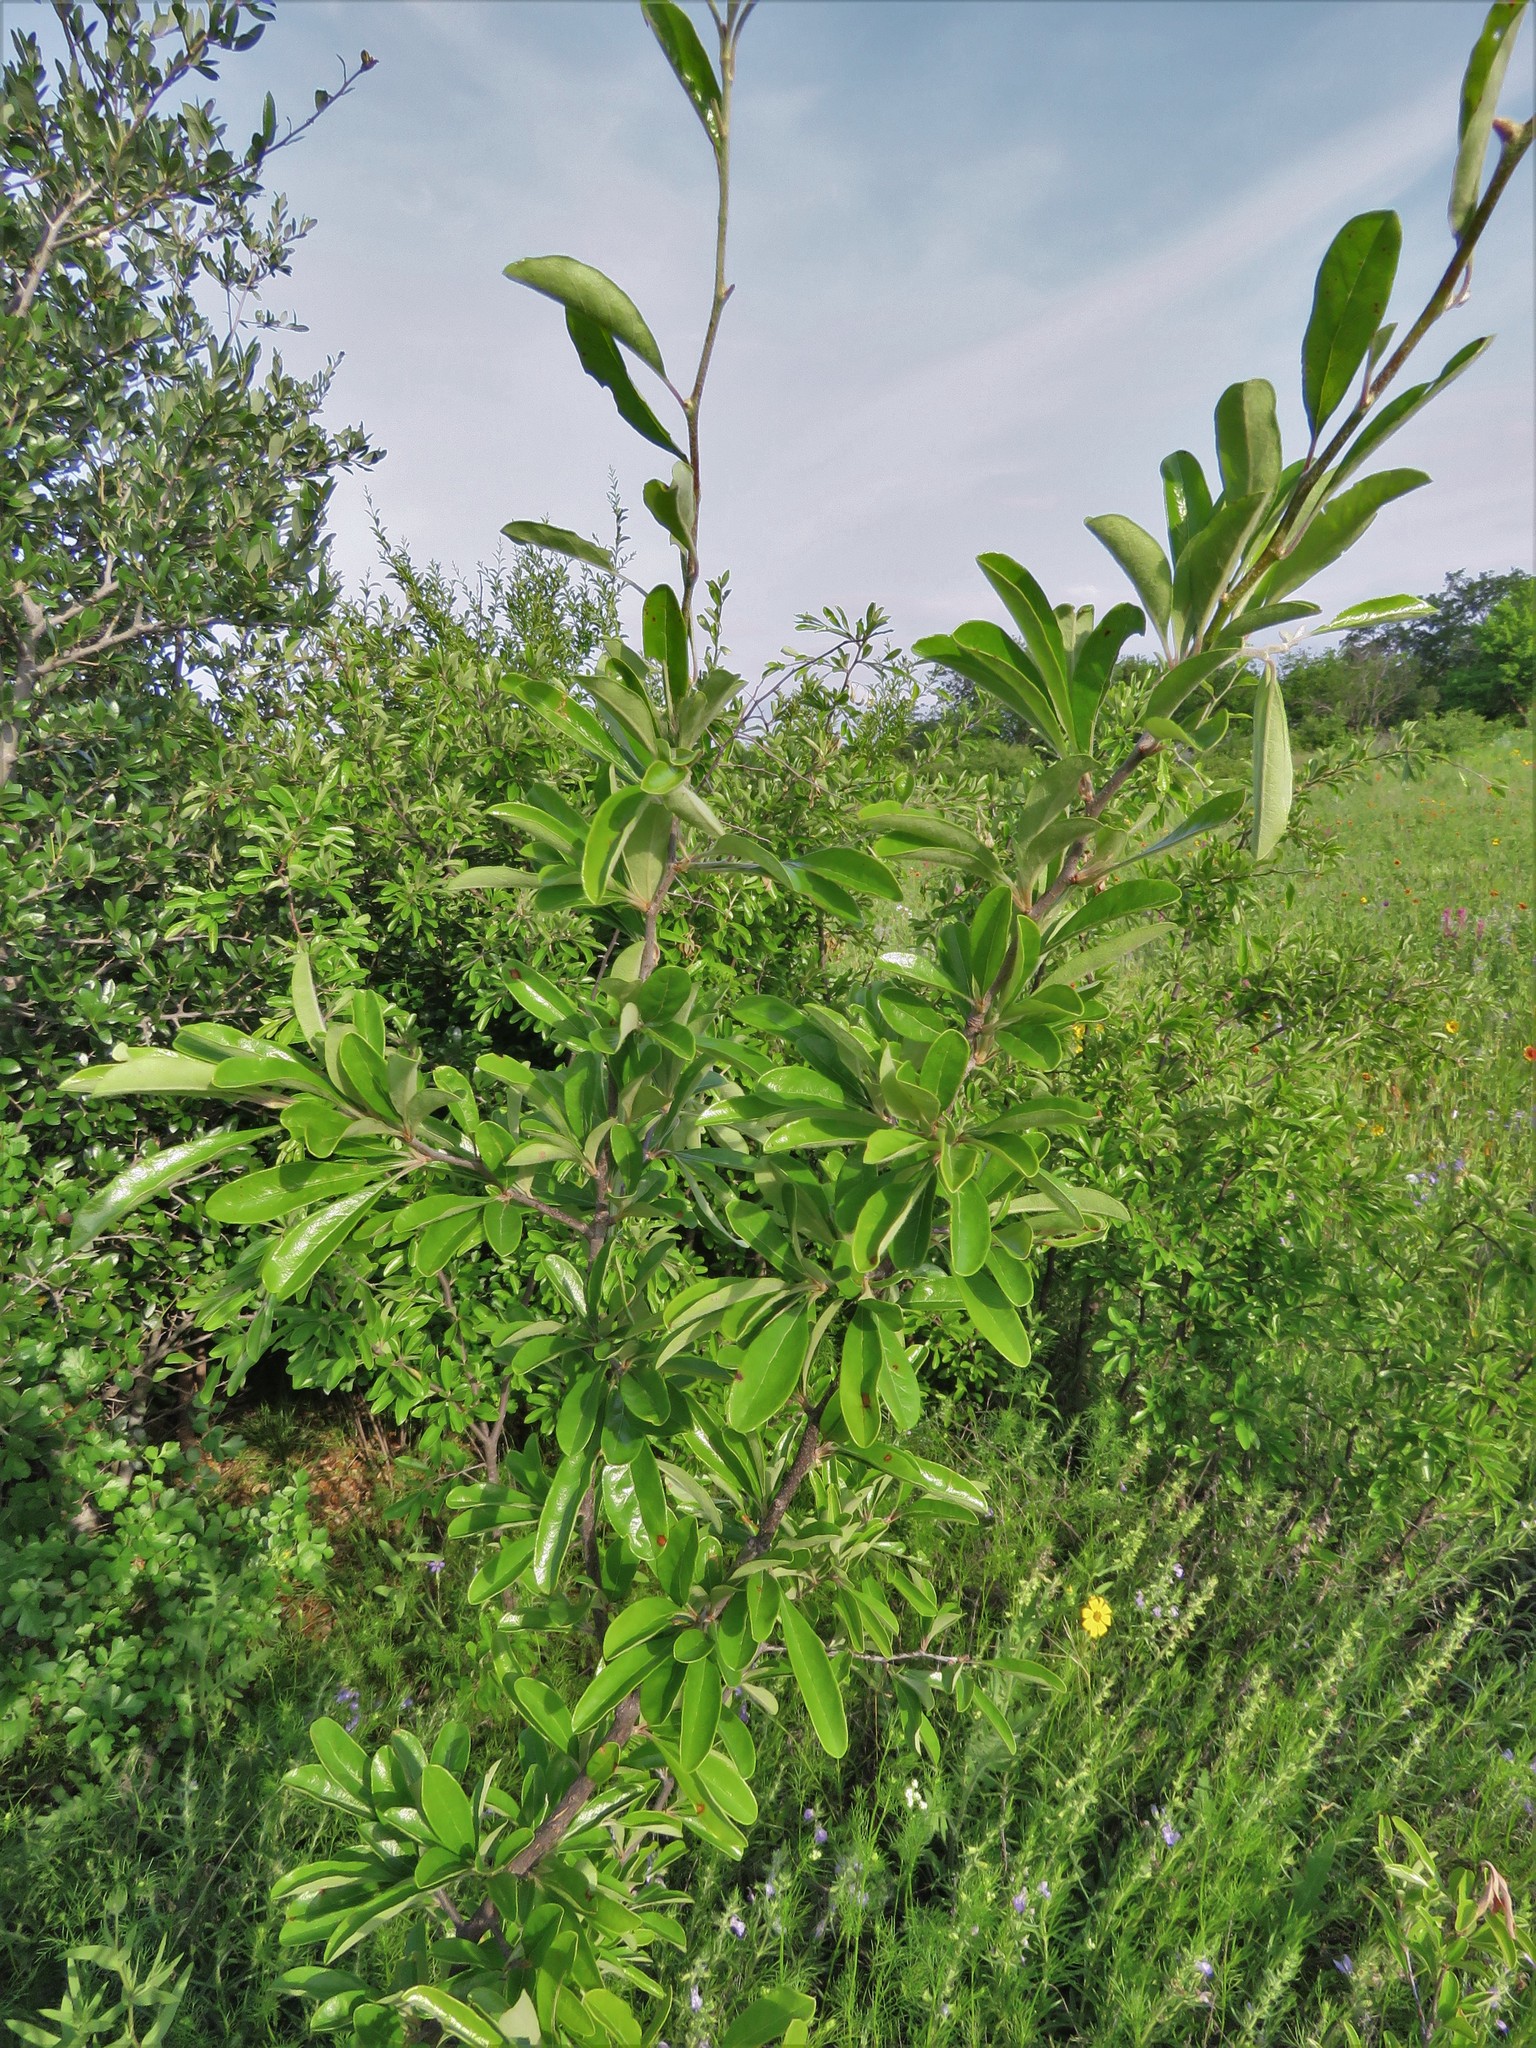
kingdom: Plantae
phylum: Tracheophyta
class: Magnoliopsida
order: Ericales
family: Sapotaceae
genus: Sideroxylon
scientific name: Sideroxylon lanuginosum
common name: Chittamwood
